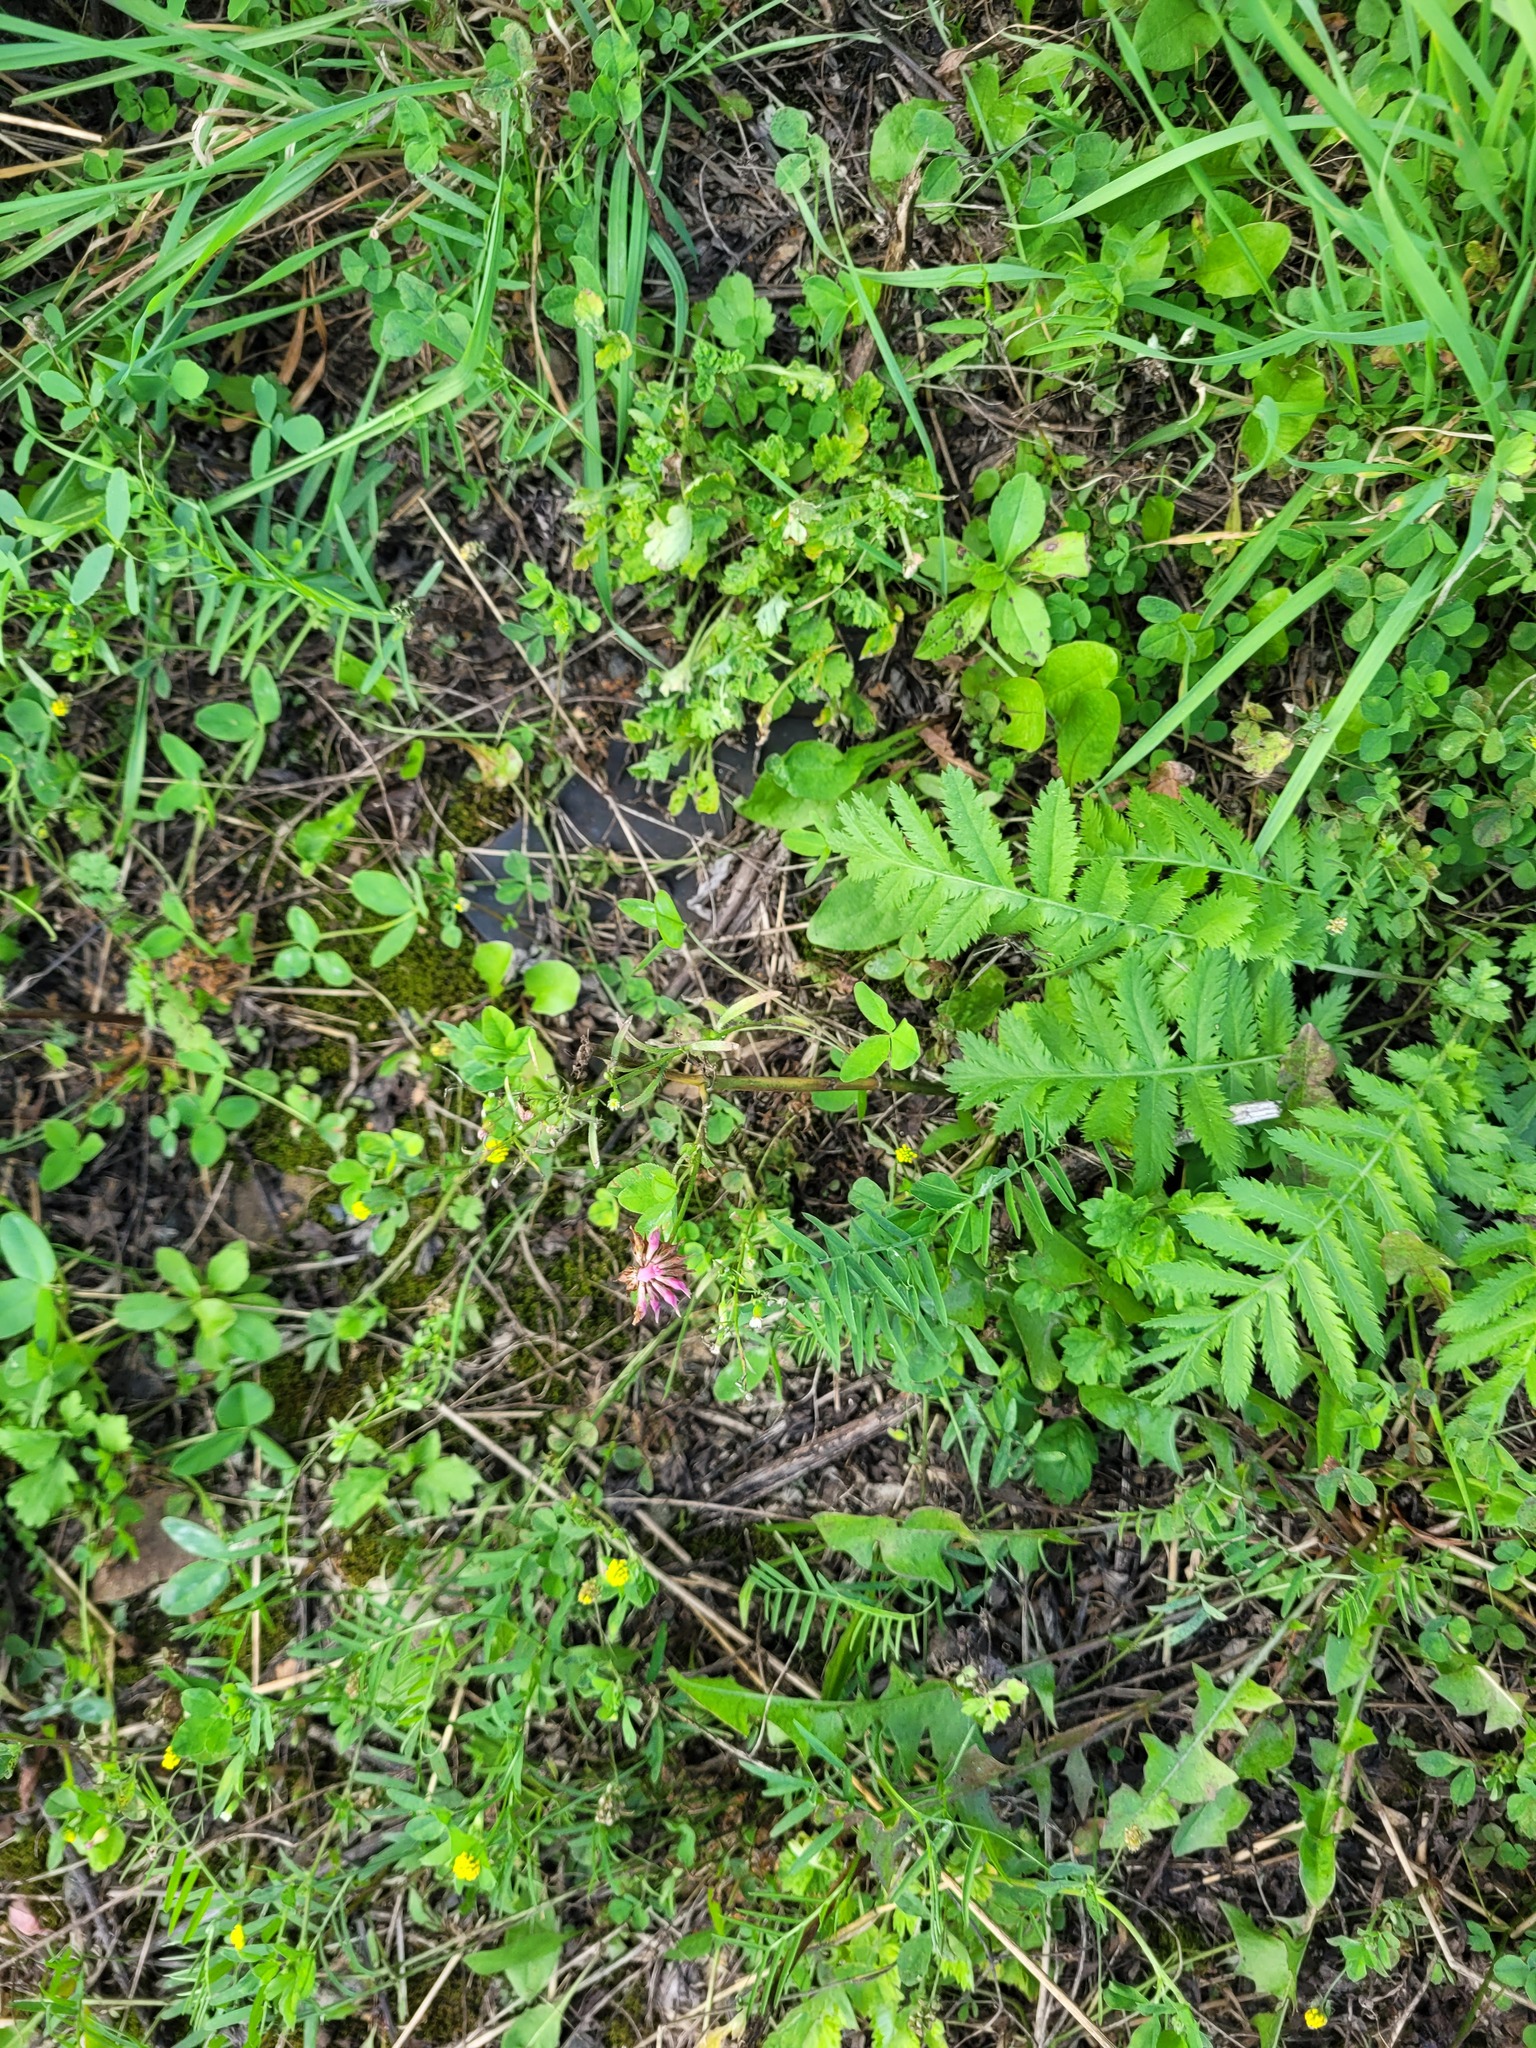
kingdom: Plantae
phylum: Tracheophyta
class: Magnoliopsida
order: Fabales
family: Fabaceae
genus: Trifolium
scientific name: Trifolium hybridum
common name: Alsike clover
